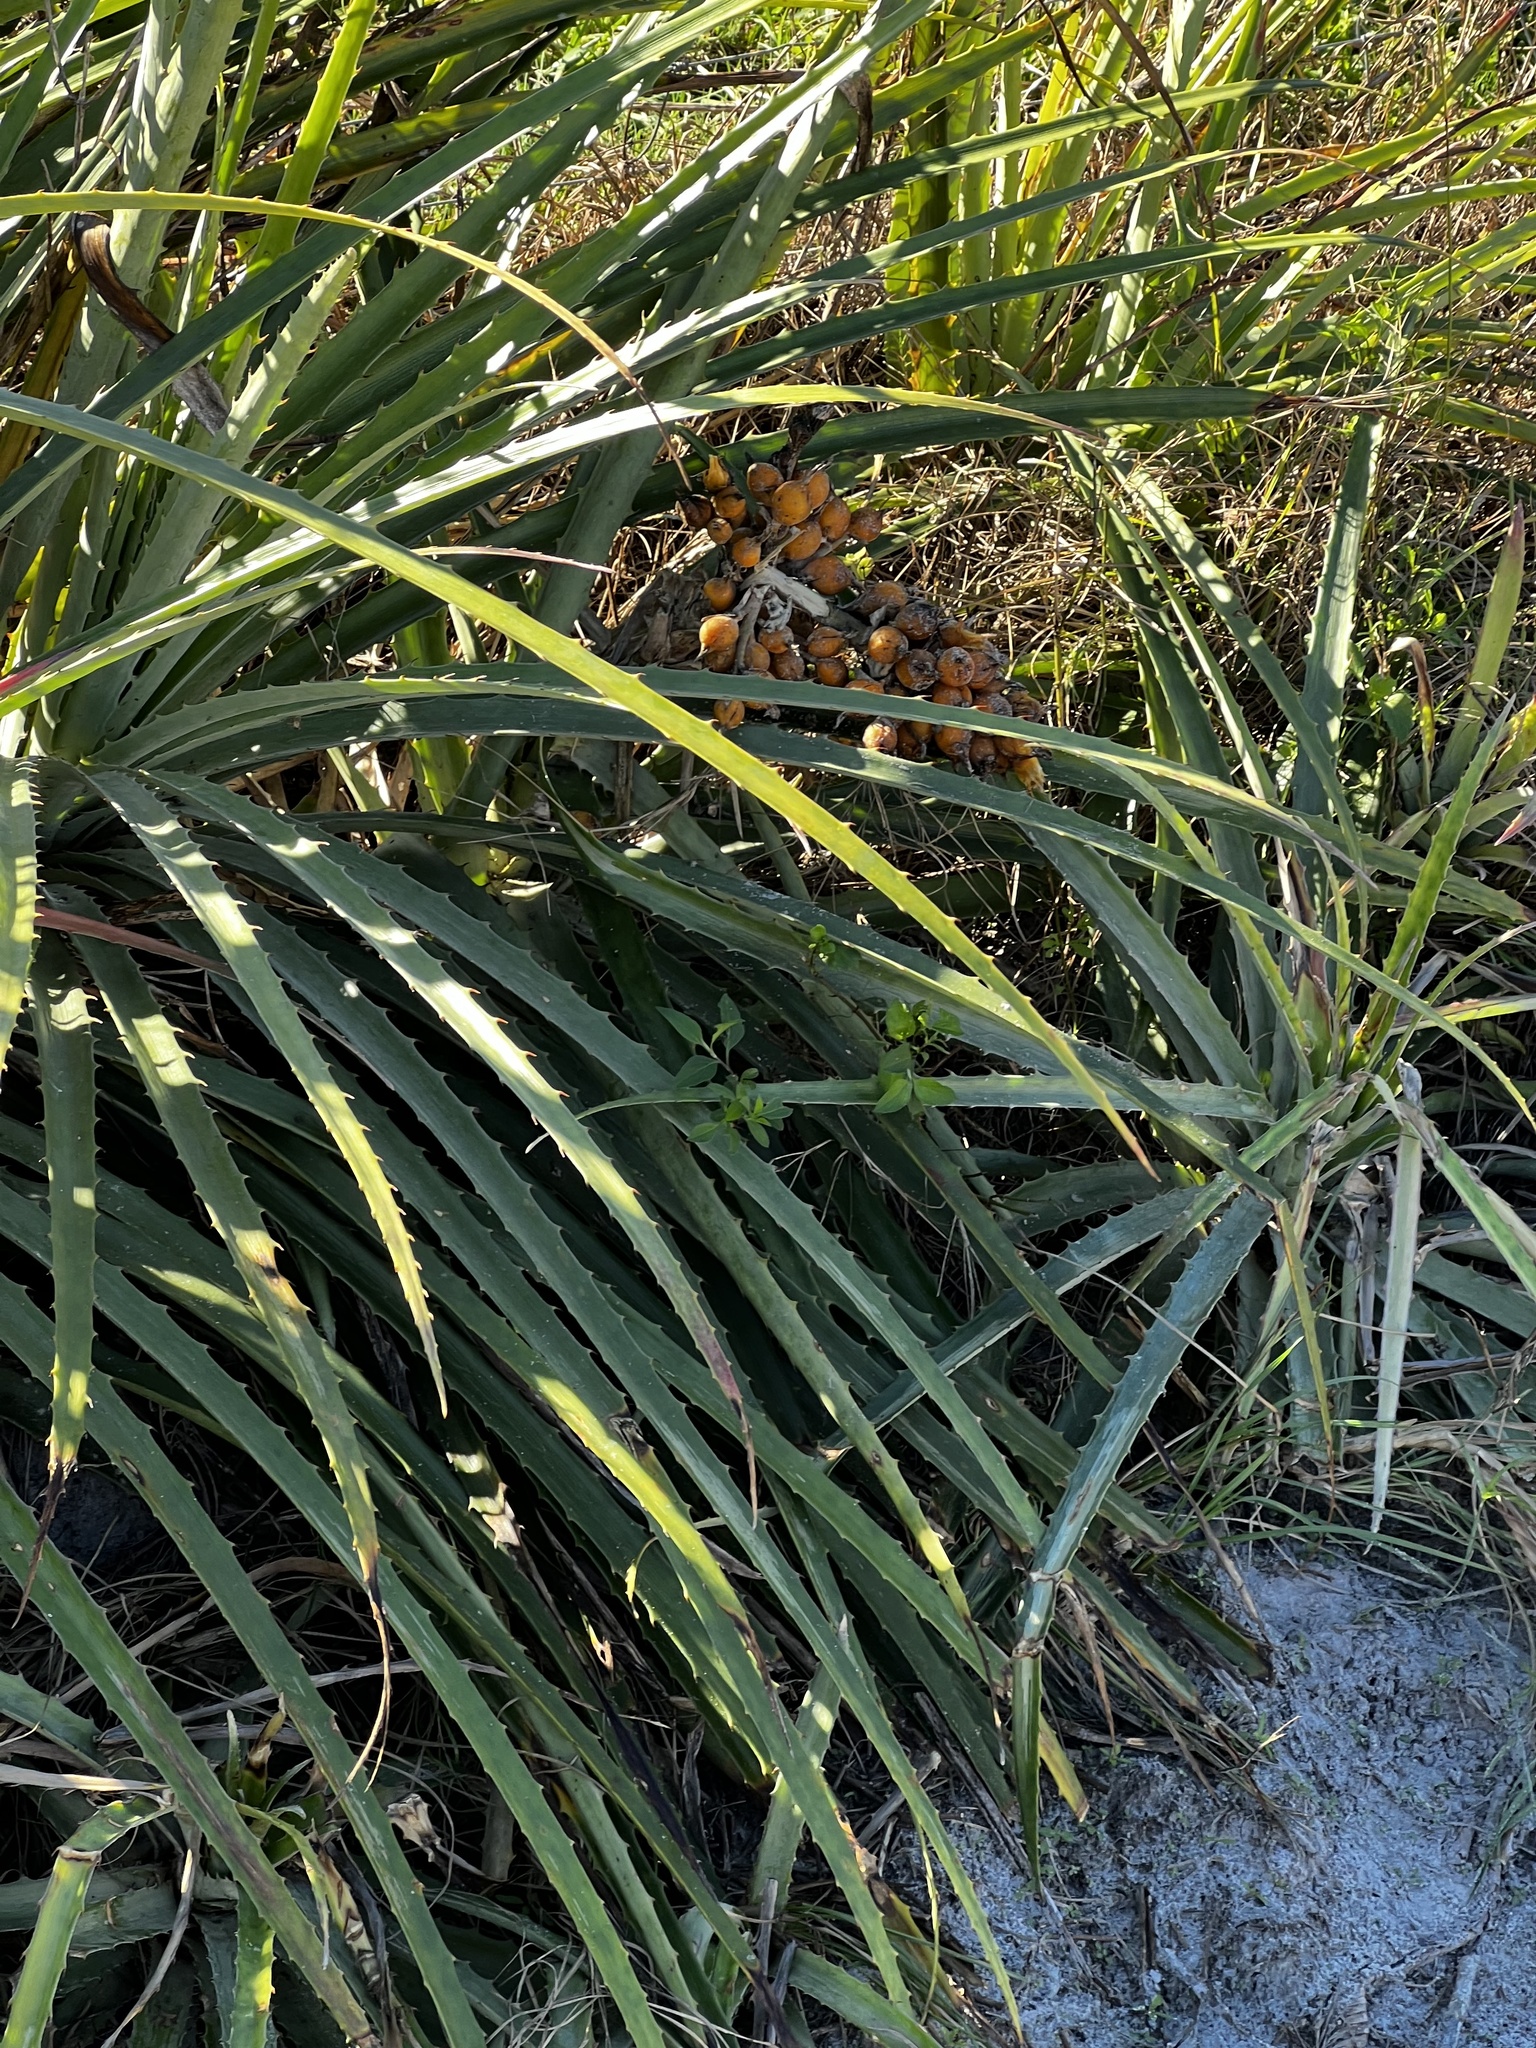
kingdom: Plantae
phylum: Tracheophyta
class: Liliopsida
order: Poales
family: Bromeliaceae
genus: Bromelia
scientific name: Bromelia pinguin
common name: Pinguin
